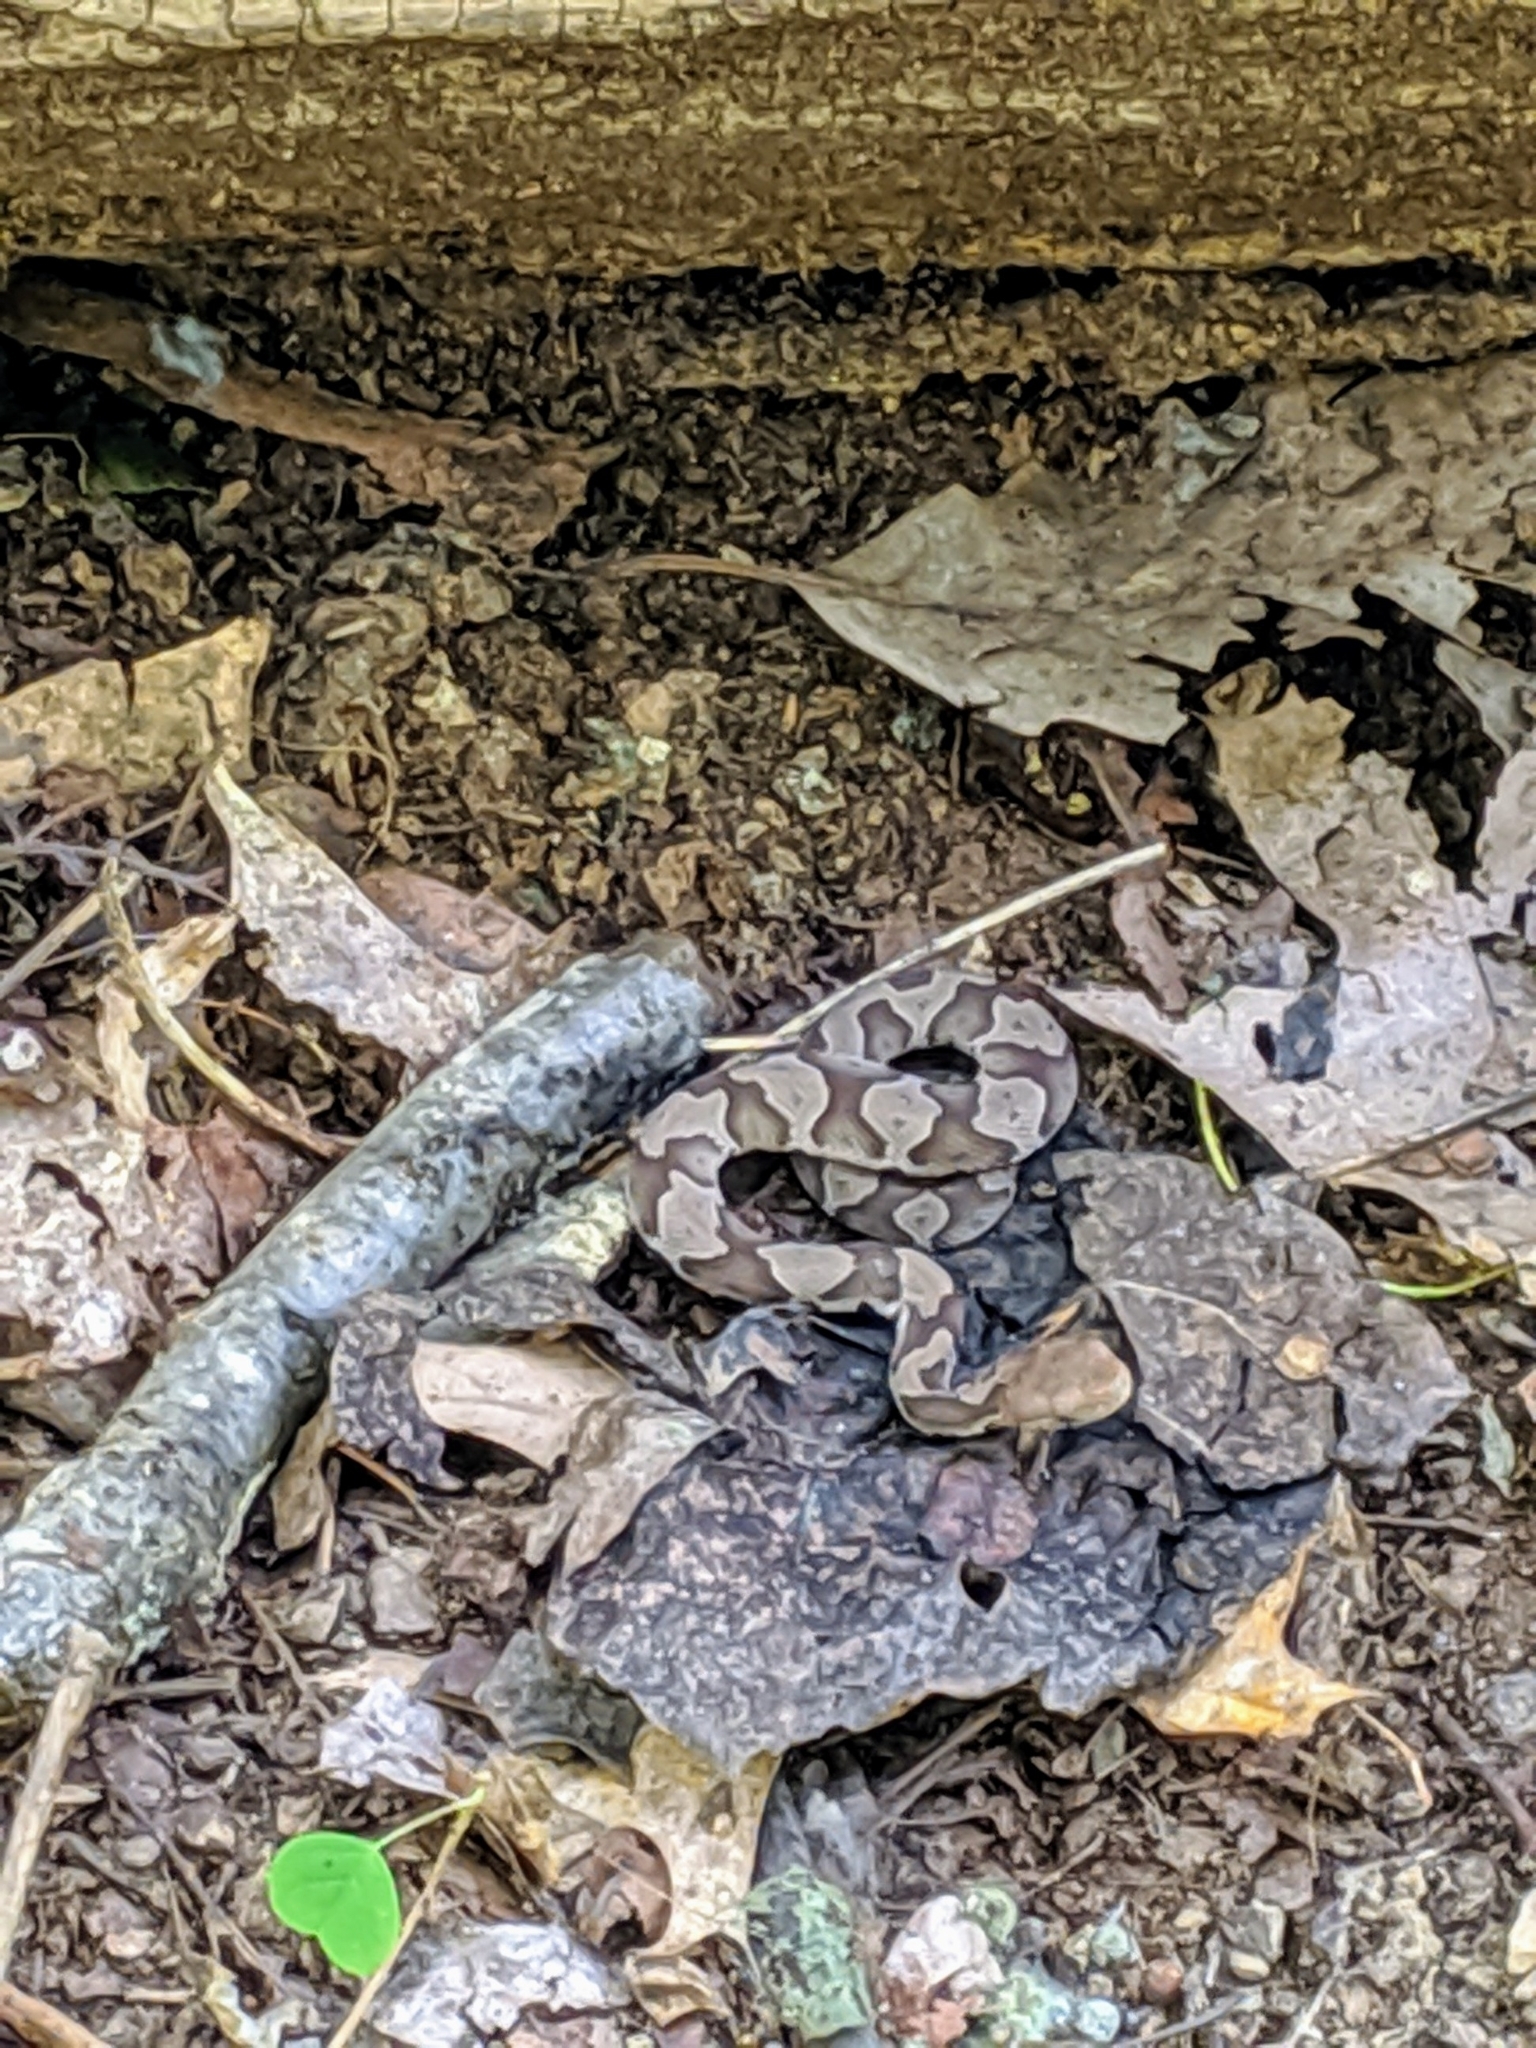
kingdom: Animalia
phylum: Chordata
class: Squamata
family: Viperidae
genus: Agkistrodon
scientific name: Agkistrodon contortrix
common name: Northern copperhead
